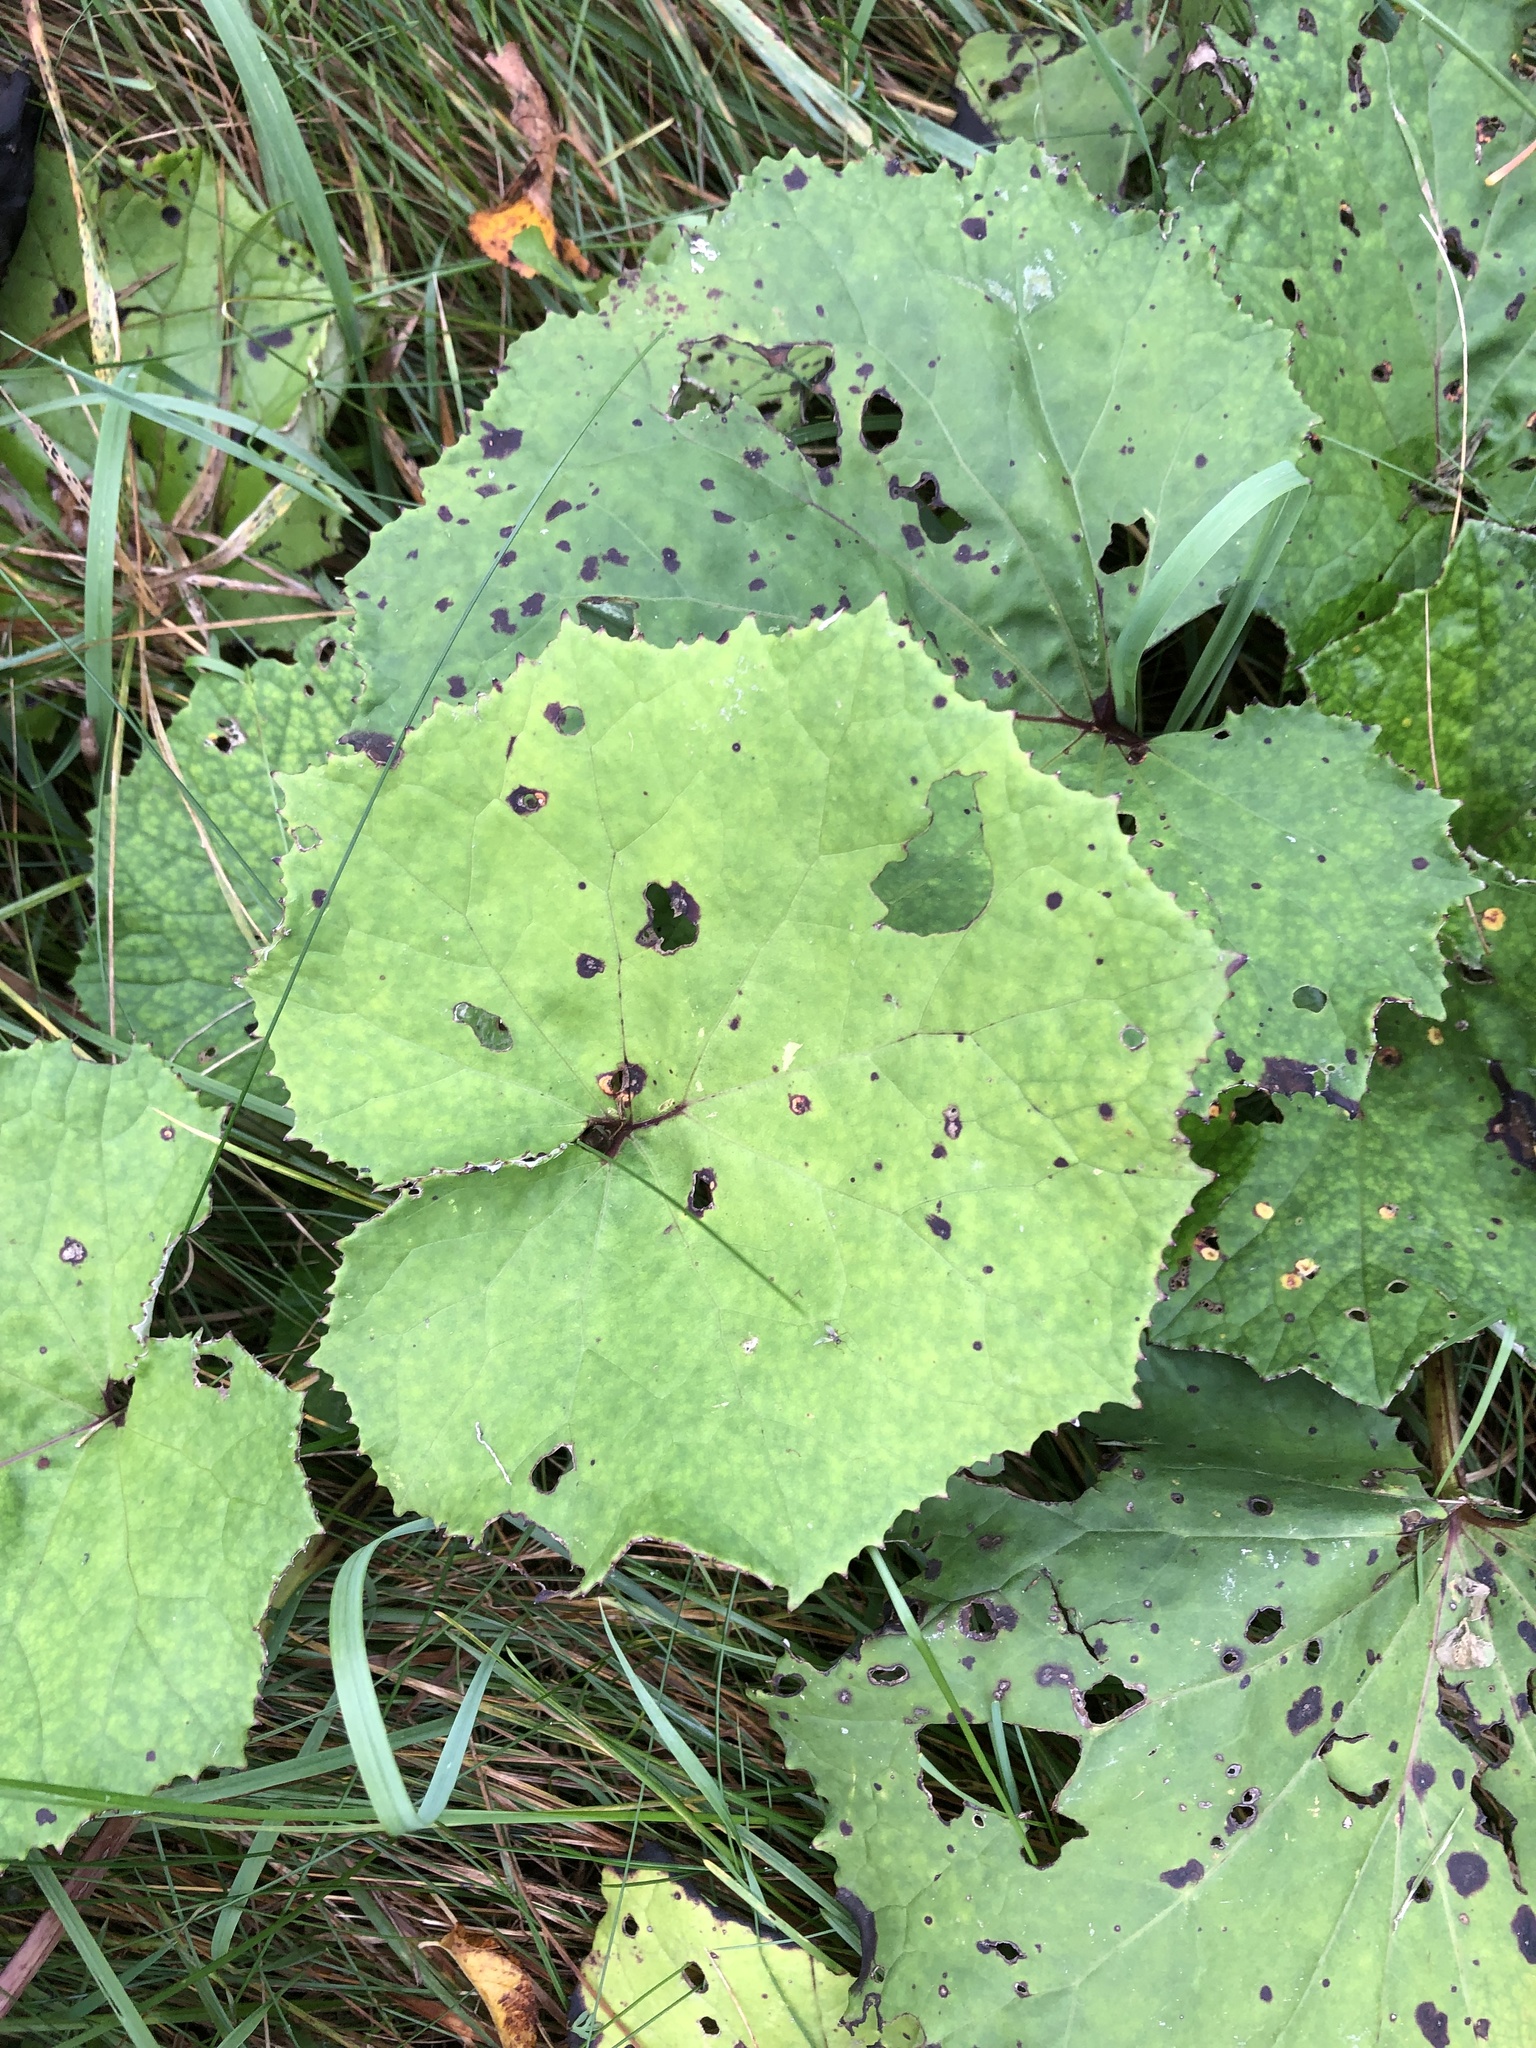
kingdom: Plantae
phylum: Tracheophyta
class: Magnoliopsida
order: Asterales
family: Asteraceae
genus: Tussilago
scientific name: Tussilago farfara
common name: Coltsfoot
